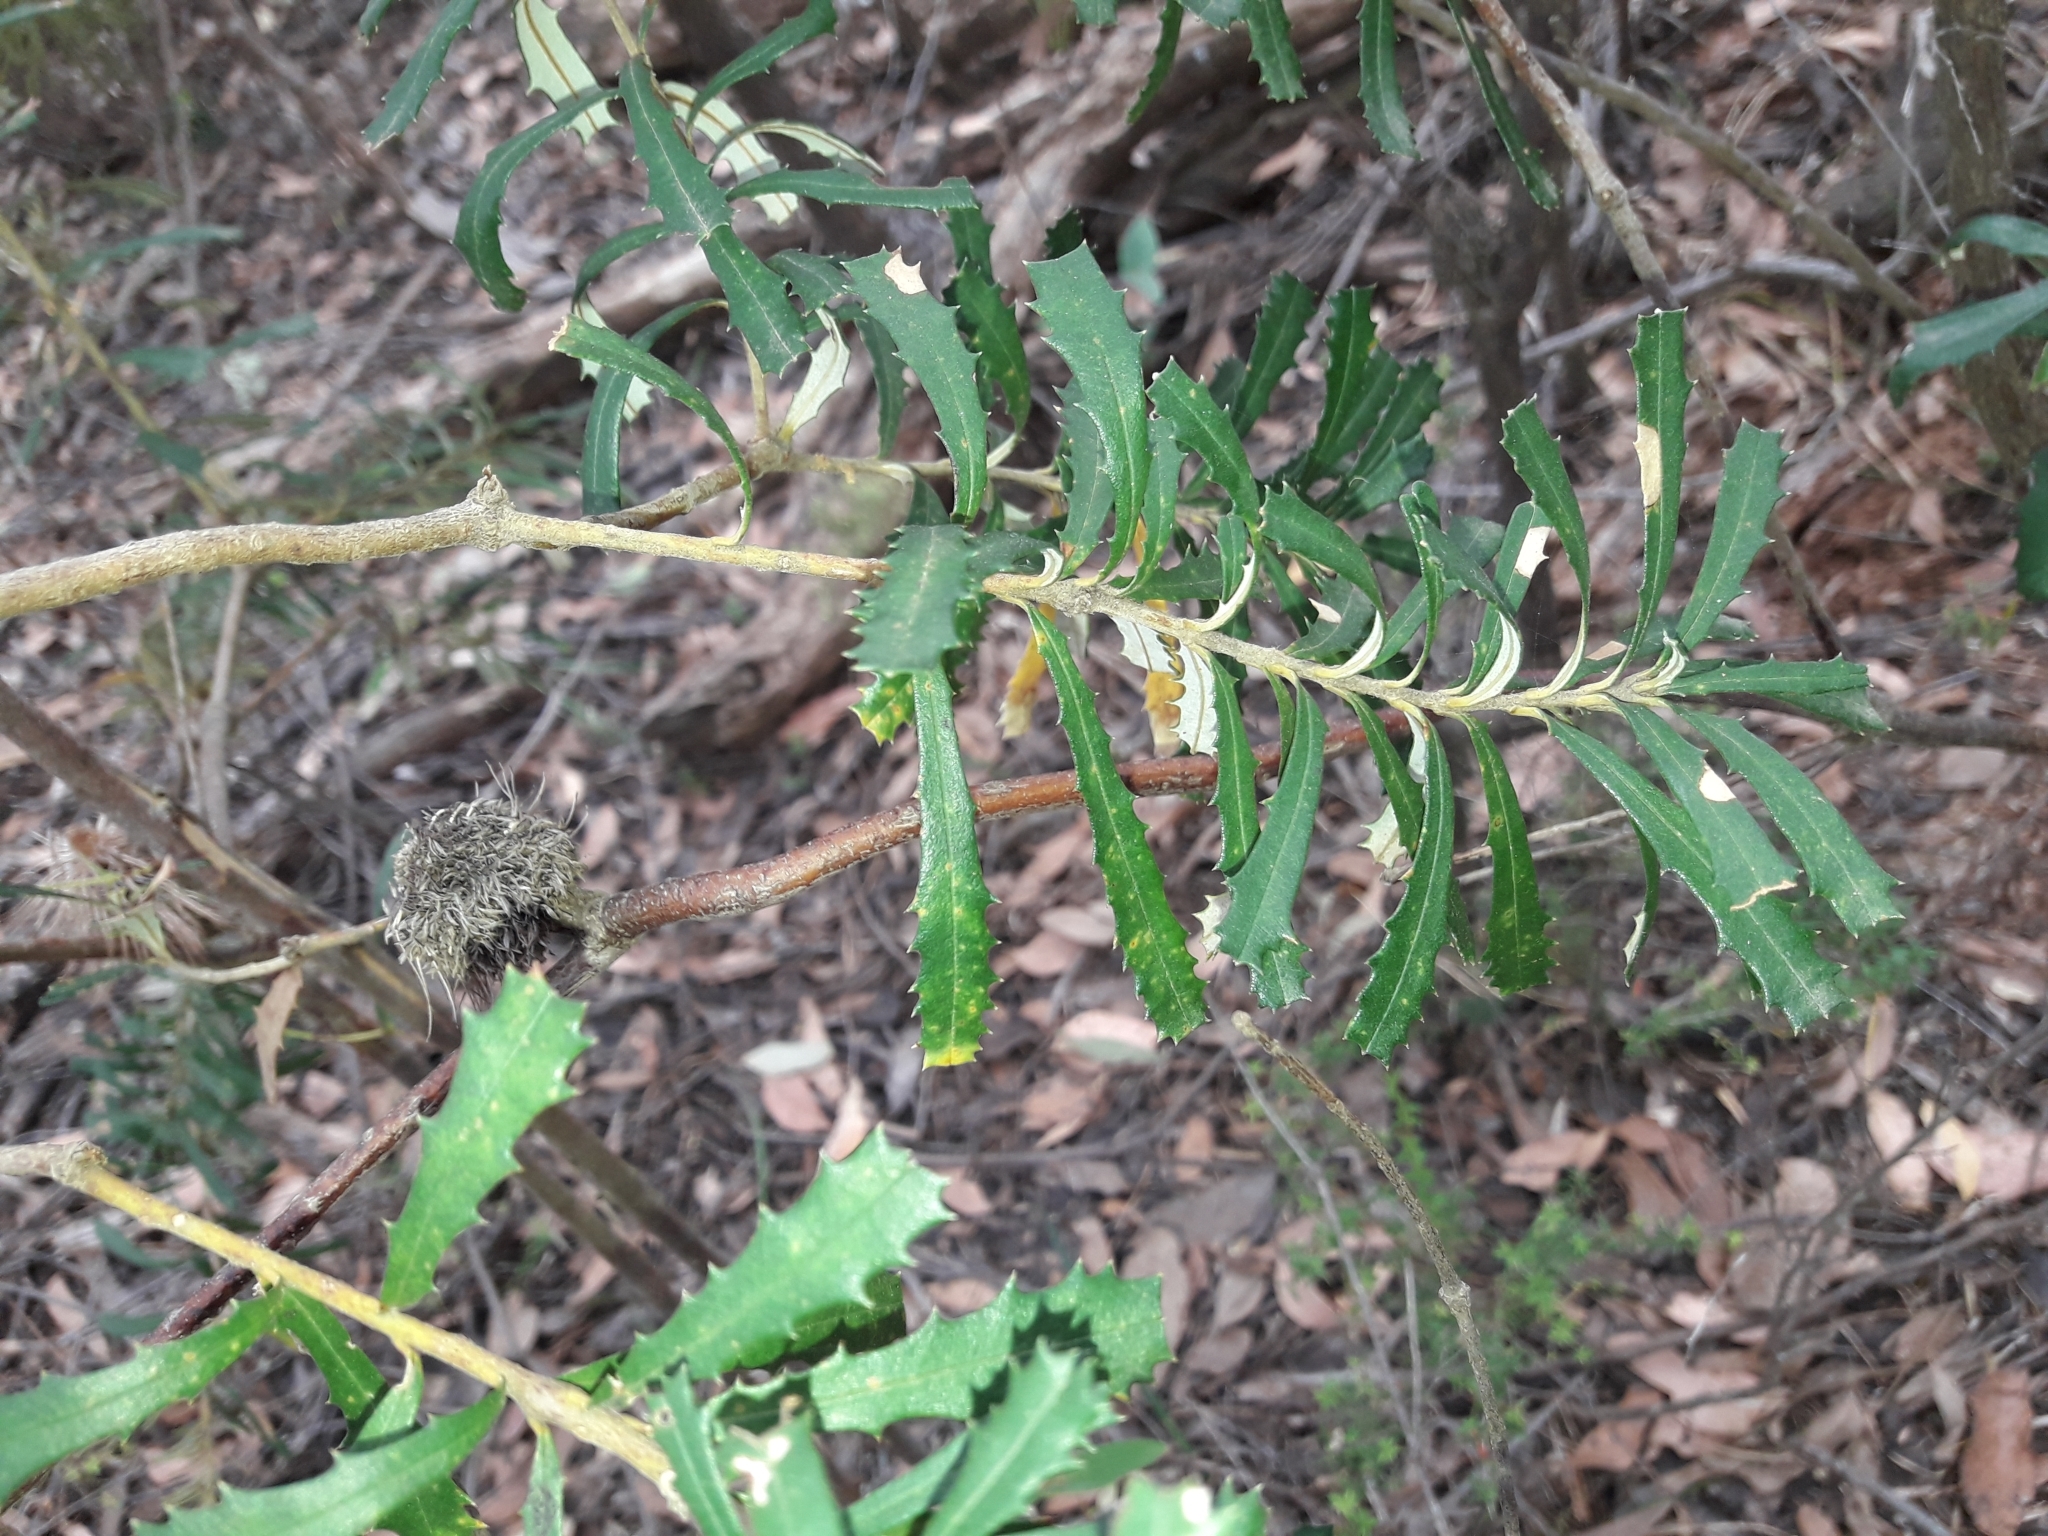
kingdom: Plantae
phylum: Tracheophyta
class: Magnoliopsida
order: Proteales
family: Proteaceae
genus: Banksia
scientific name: Banksia marginata
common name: Silver banksia
